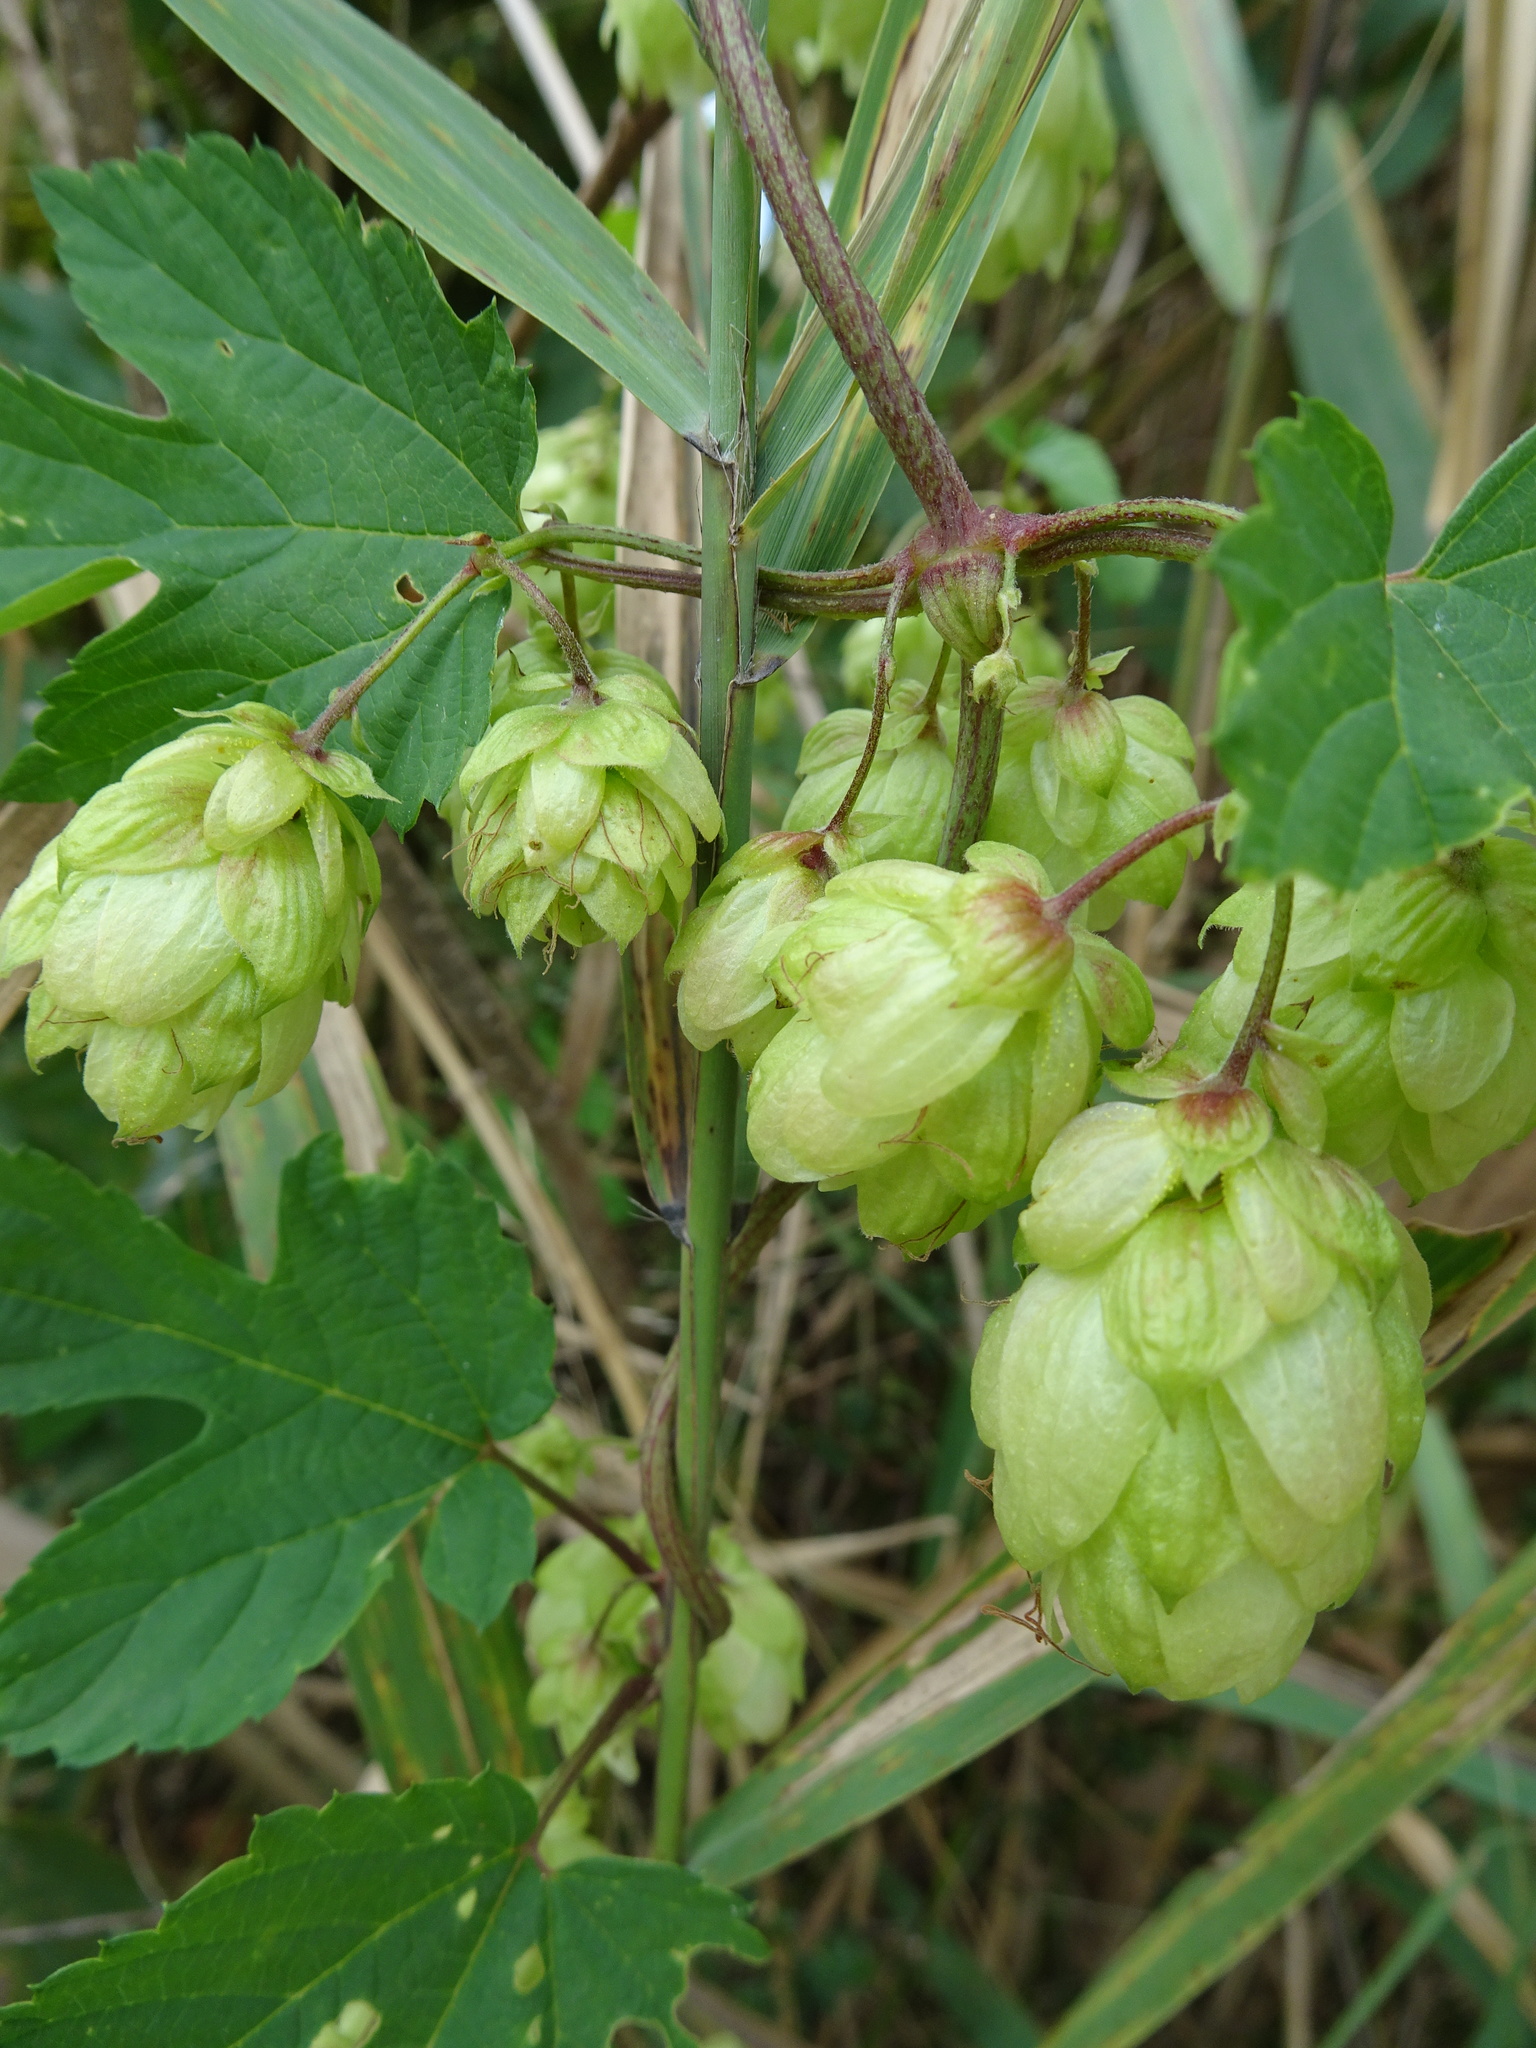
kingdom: Plantae
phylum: Tracheophyta
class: Magnoliopsida
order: Rosales
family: Cannabaceae
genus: Humulus
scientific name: Humulus lupulus
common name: Hop
